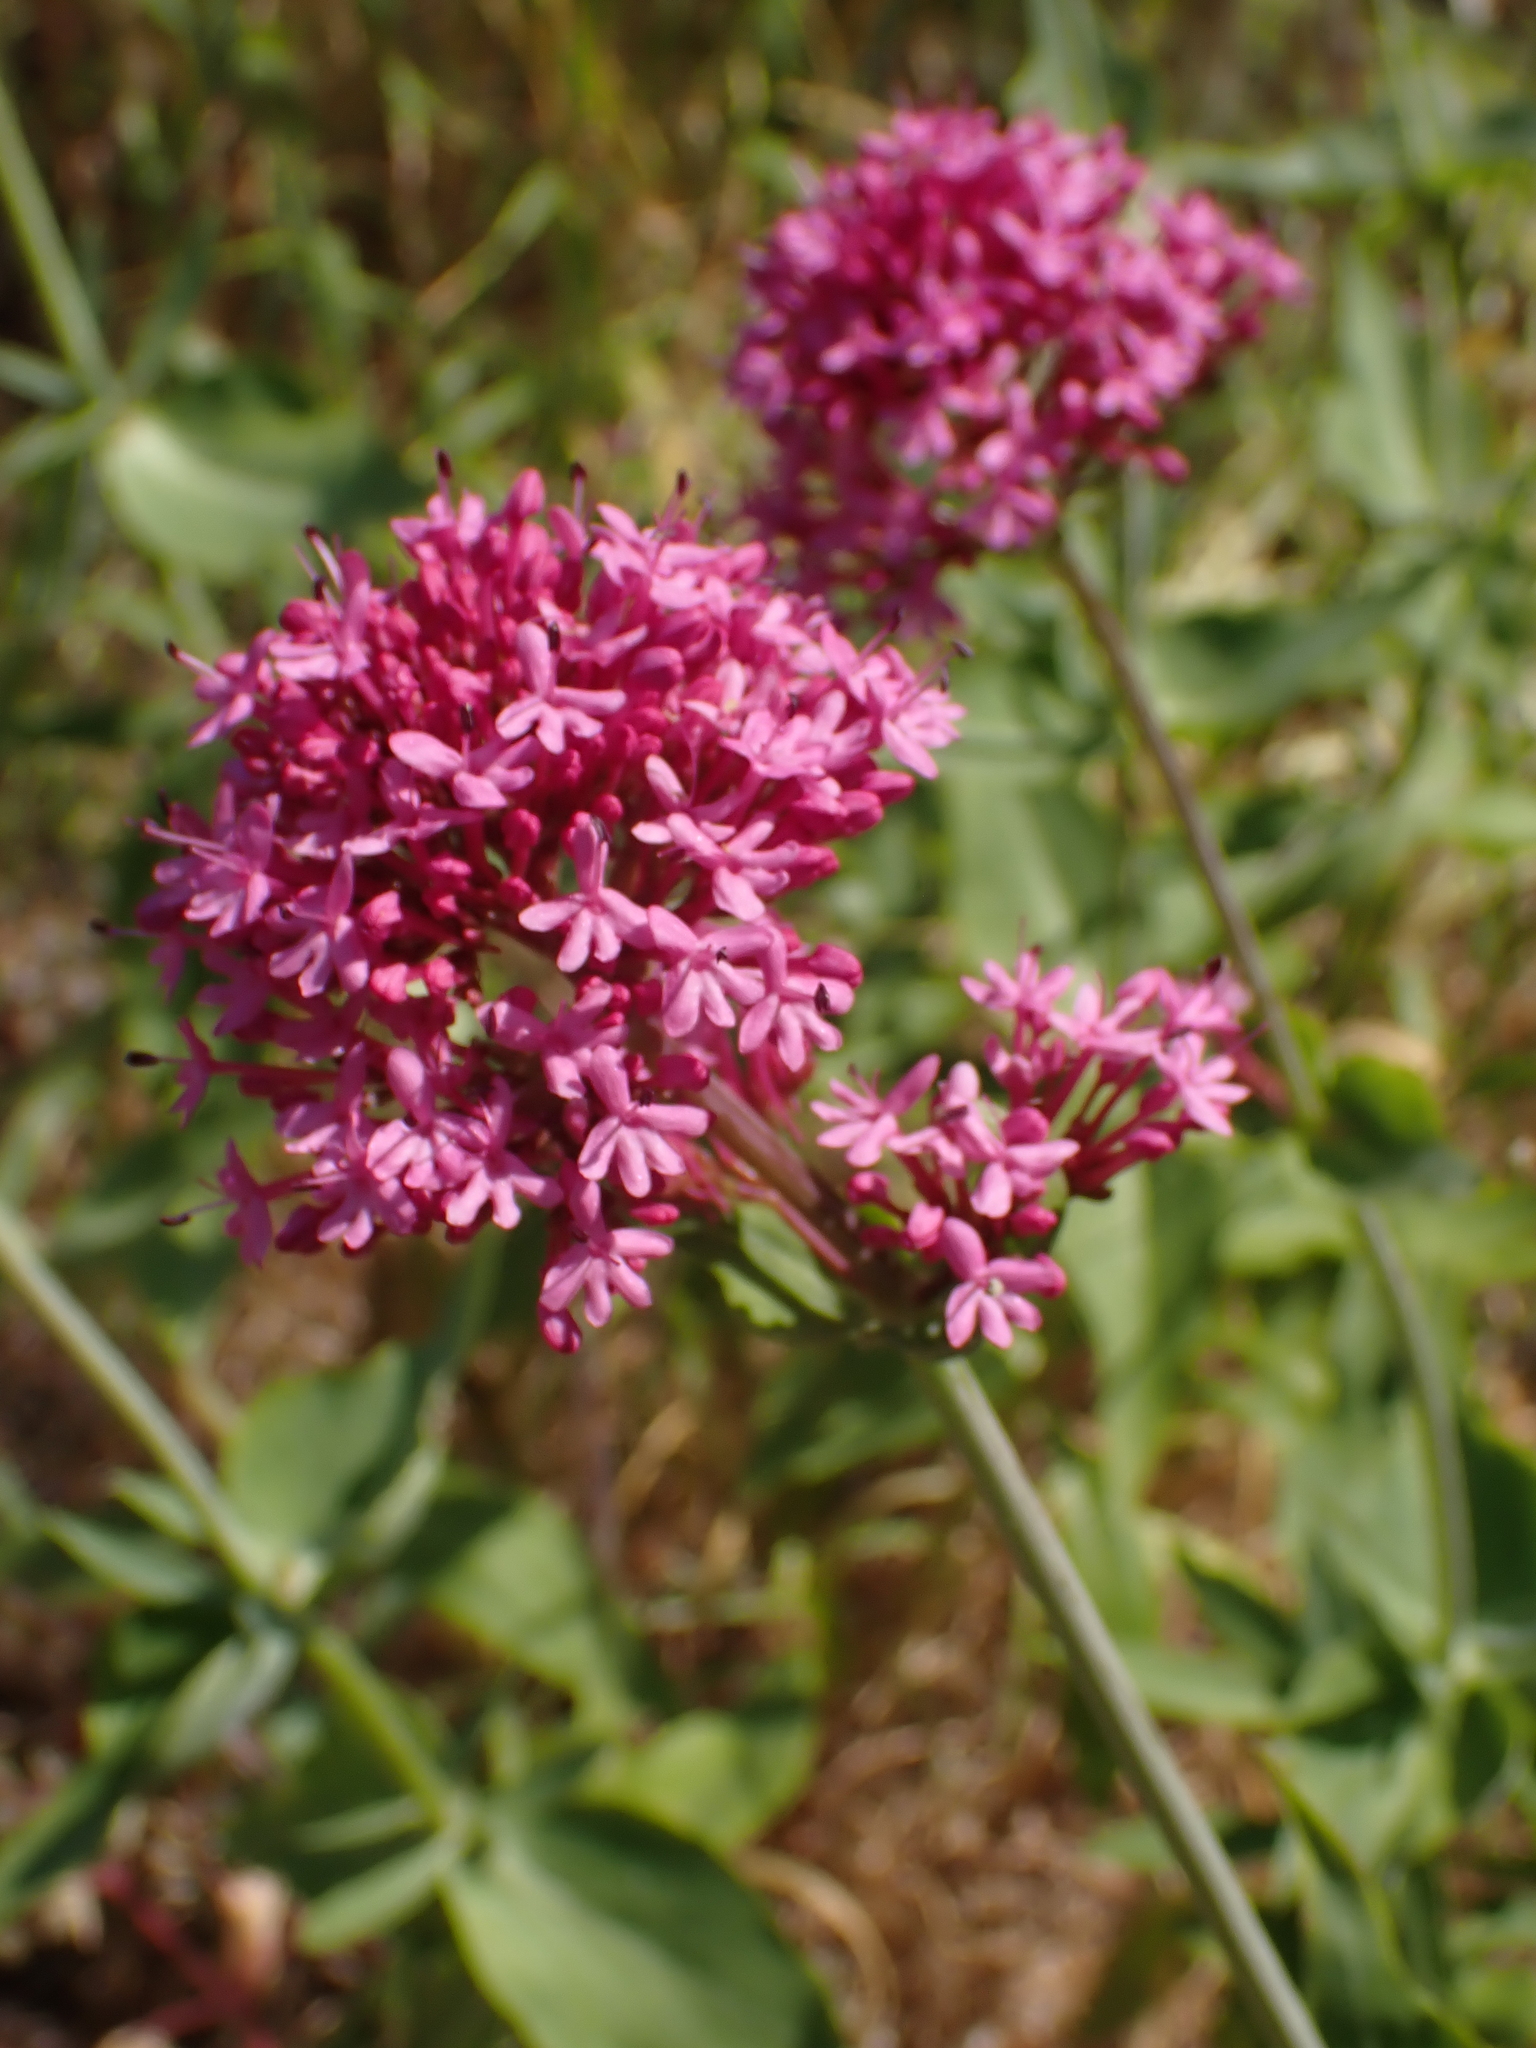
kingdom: Plantae
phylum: Tracheophyta
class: Magnoliopsida
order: Dipsacales
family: Caprifoliaceae
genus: Centranthus
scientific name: Centranthus ruber
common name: Red valerian
